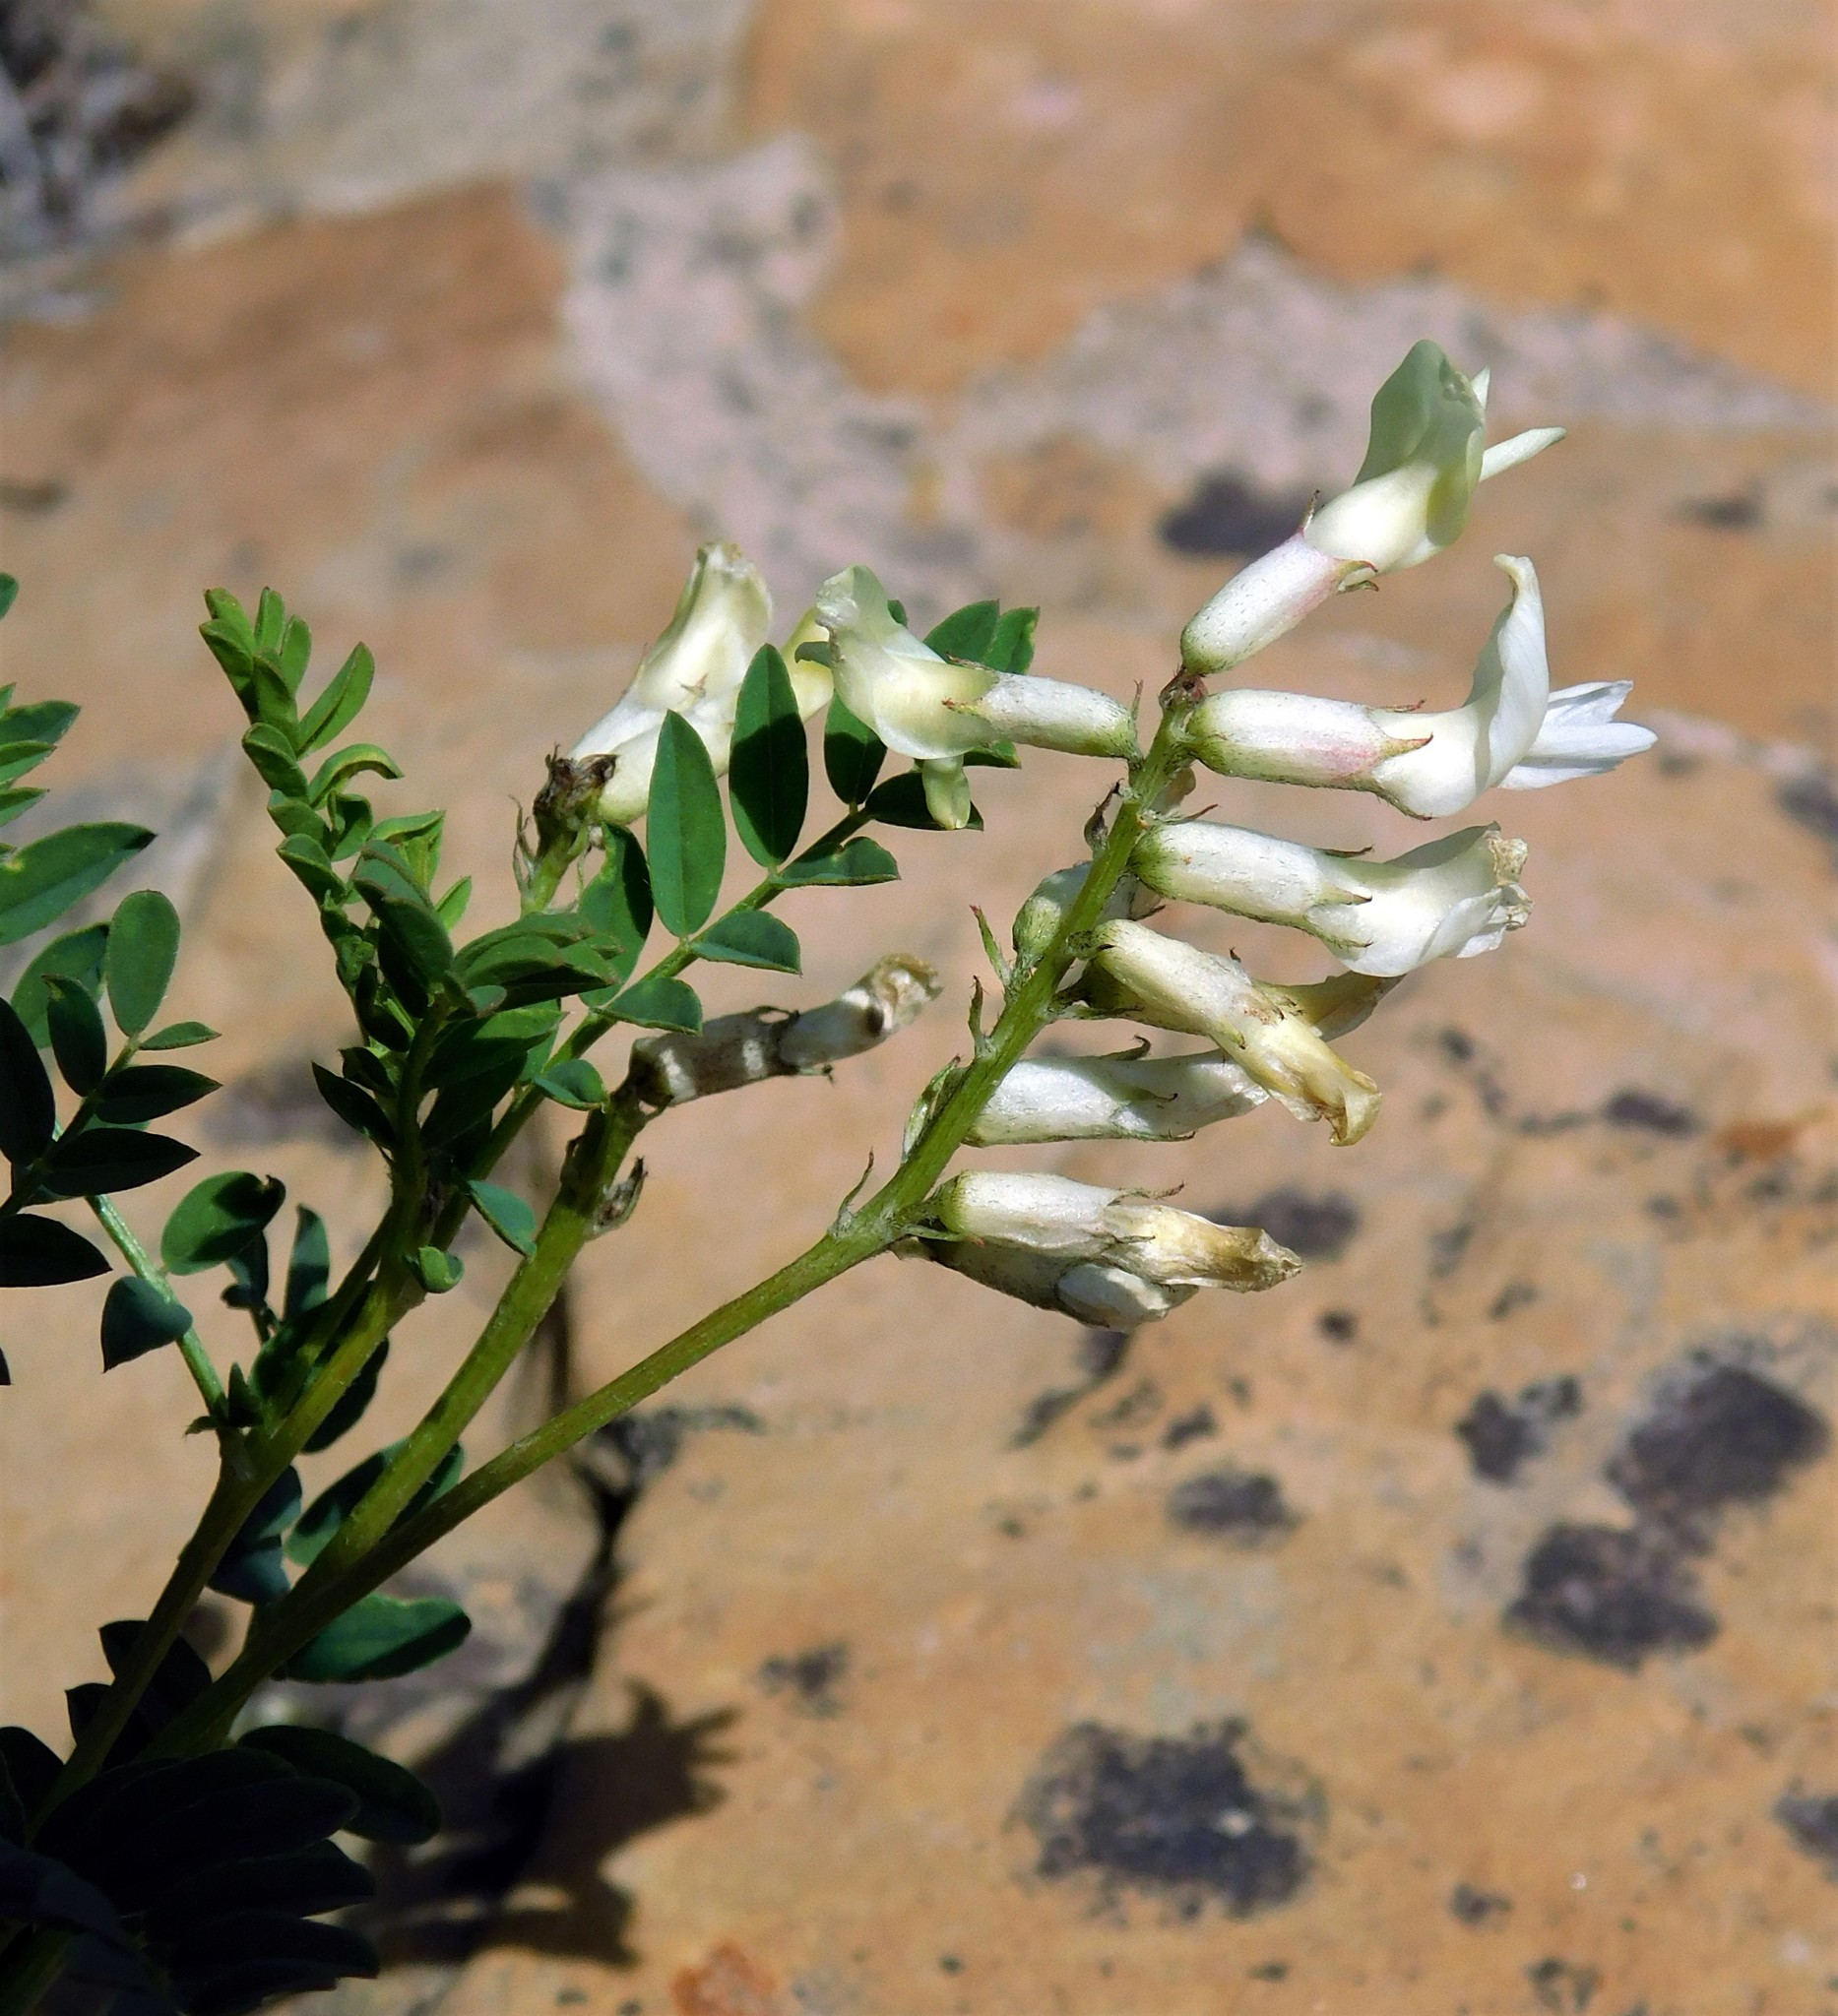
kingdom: Plantae
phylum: Tracheophyta
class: Magnoliopsida
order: Fabales
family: Fabaceae
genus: Astragalus
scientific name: Astragalus pattersonii
